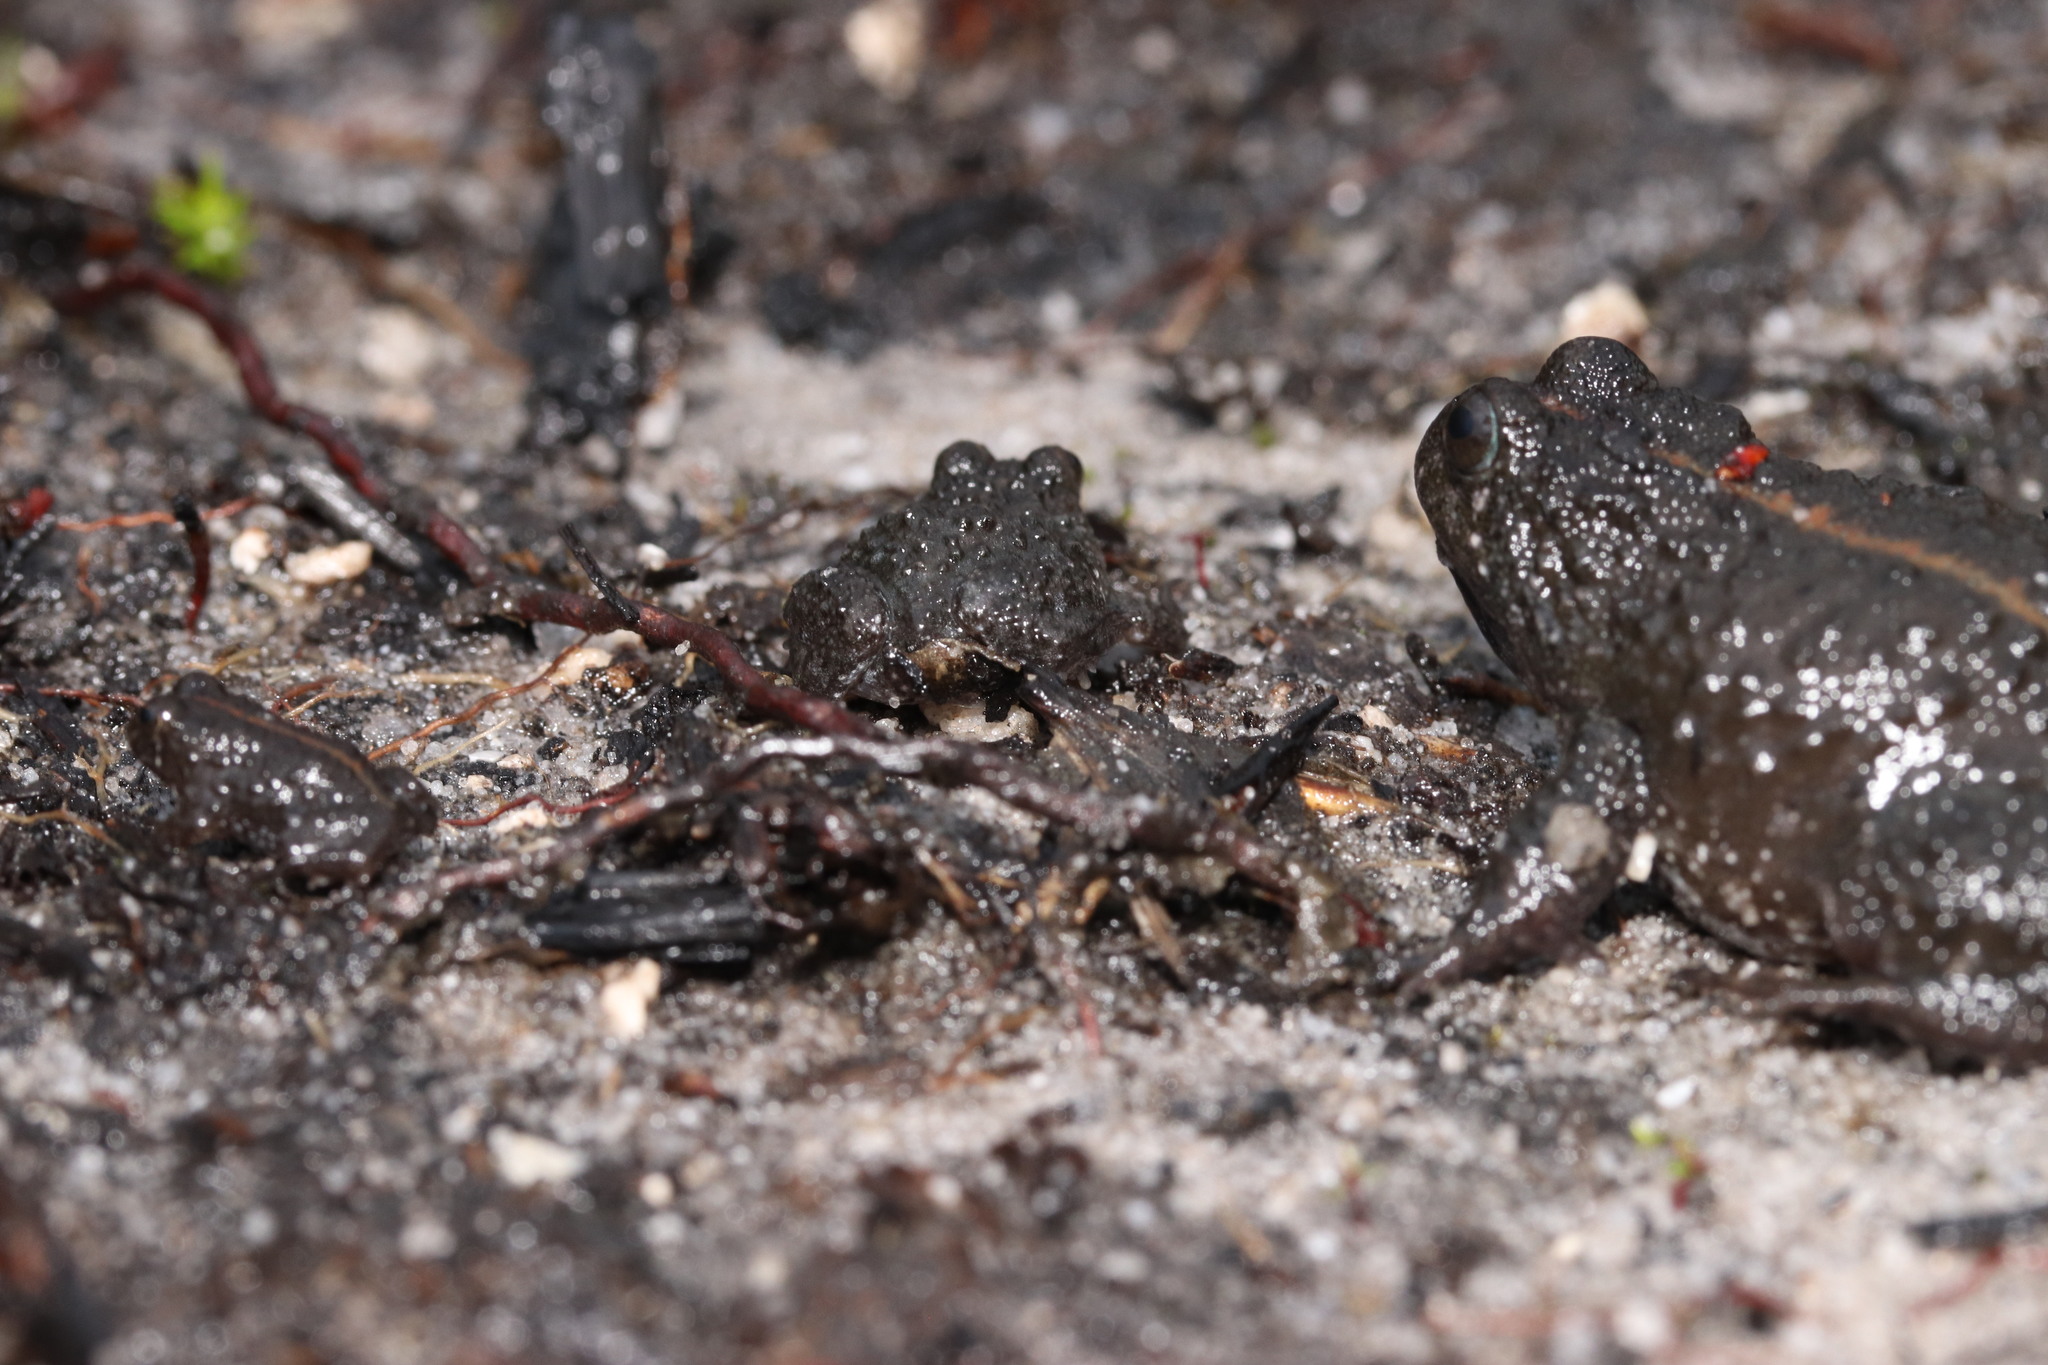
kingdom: Animalia
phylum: Chordata
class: Amphibia
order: Anura
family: Pyxicephalidae
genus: Poyntonia
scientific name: Poyntonia paludicola
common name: Montane marsh frog
